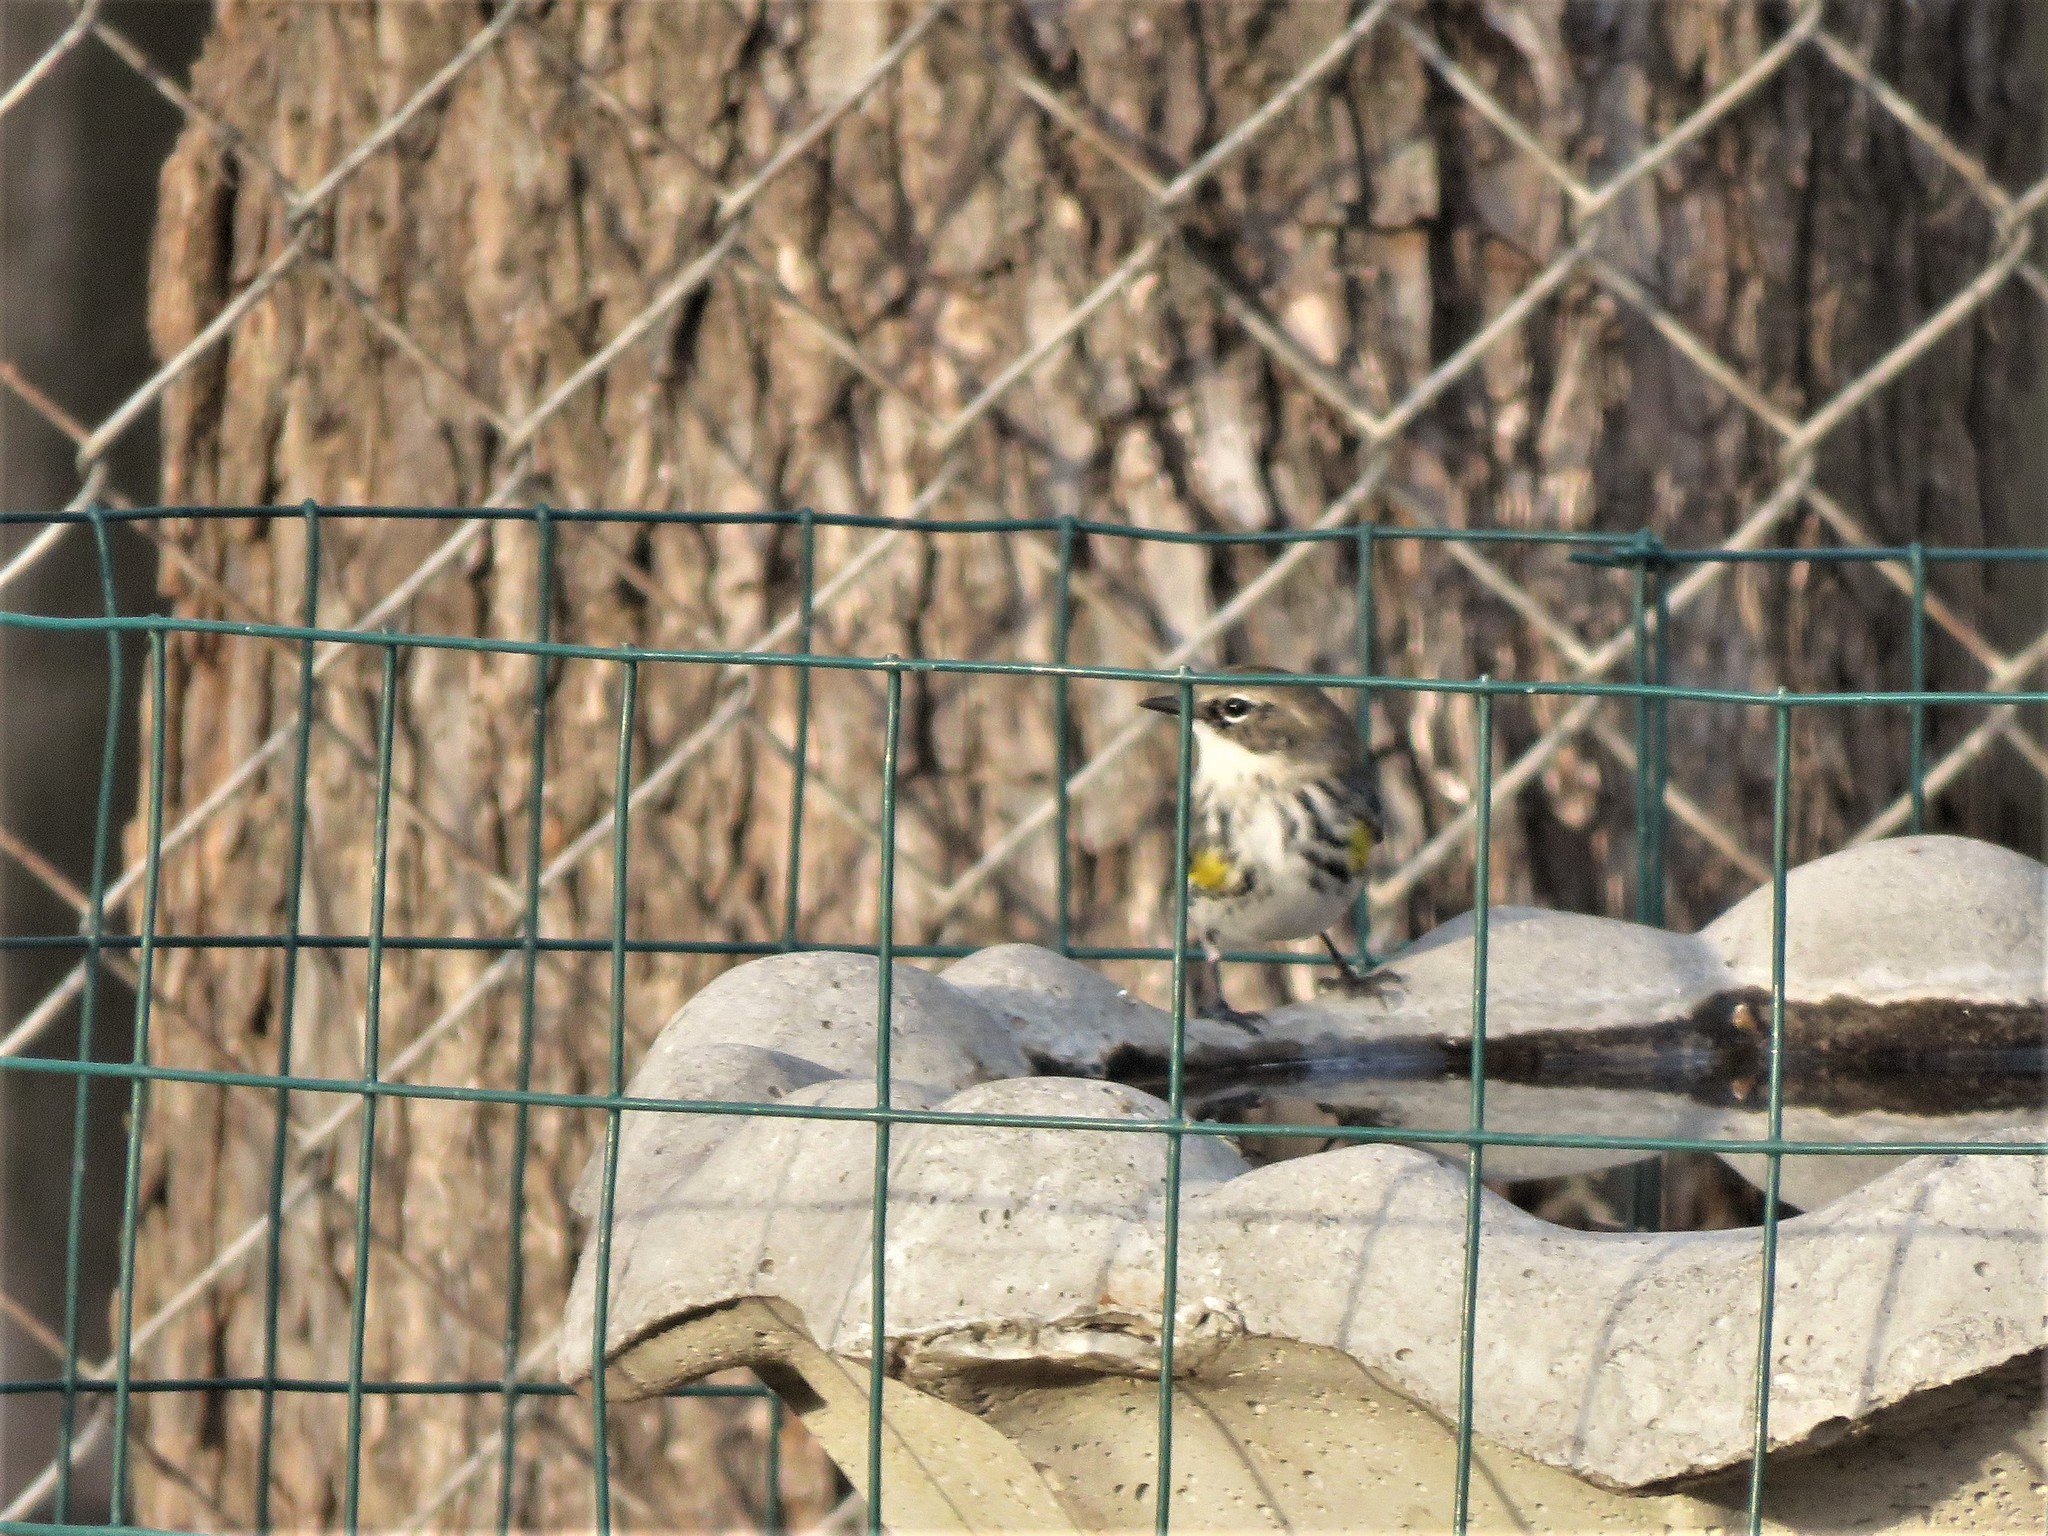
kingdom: Animalia
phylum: Chordata
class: Aves
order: Passeriformes
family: Parulidae
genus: Setophaga
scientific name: Setophaga coronata
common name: Myrtle warbler
